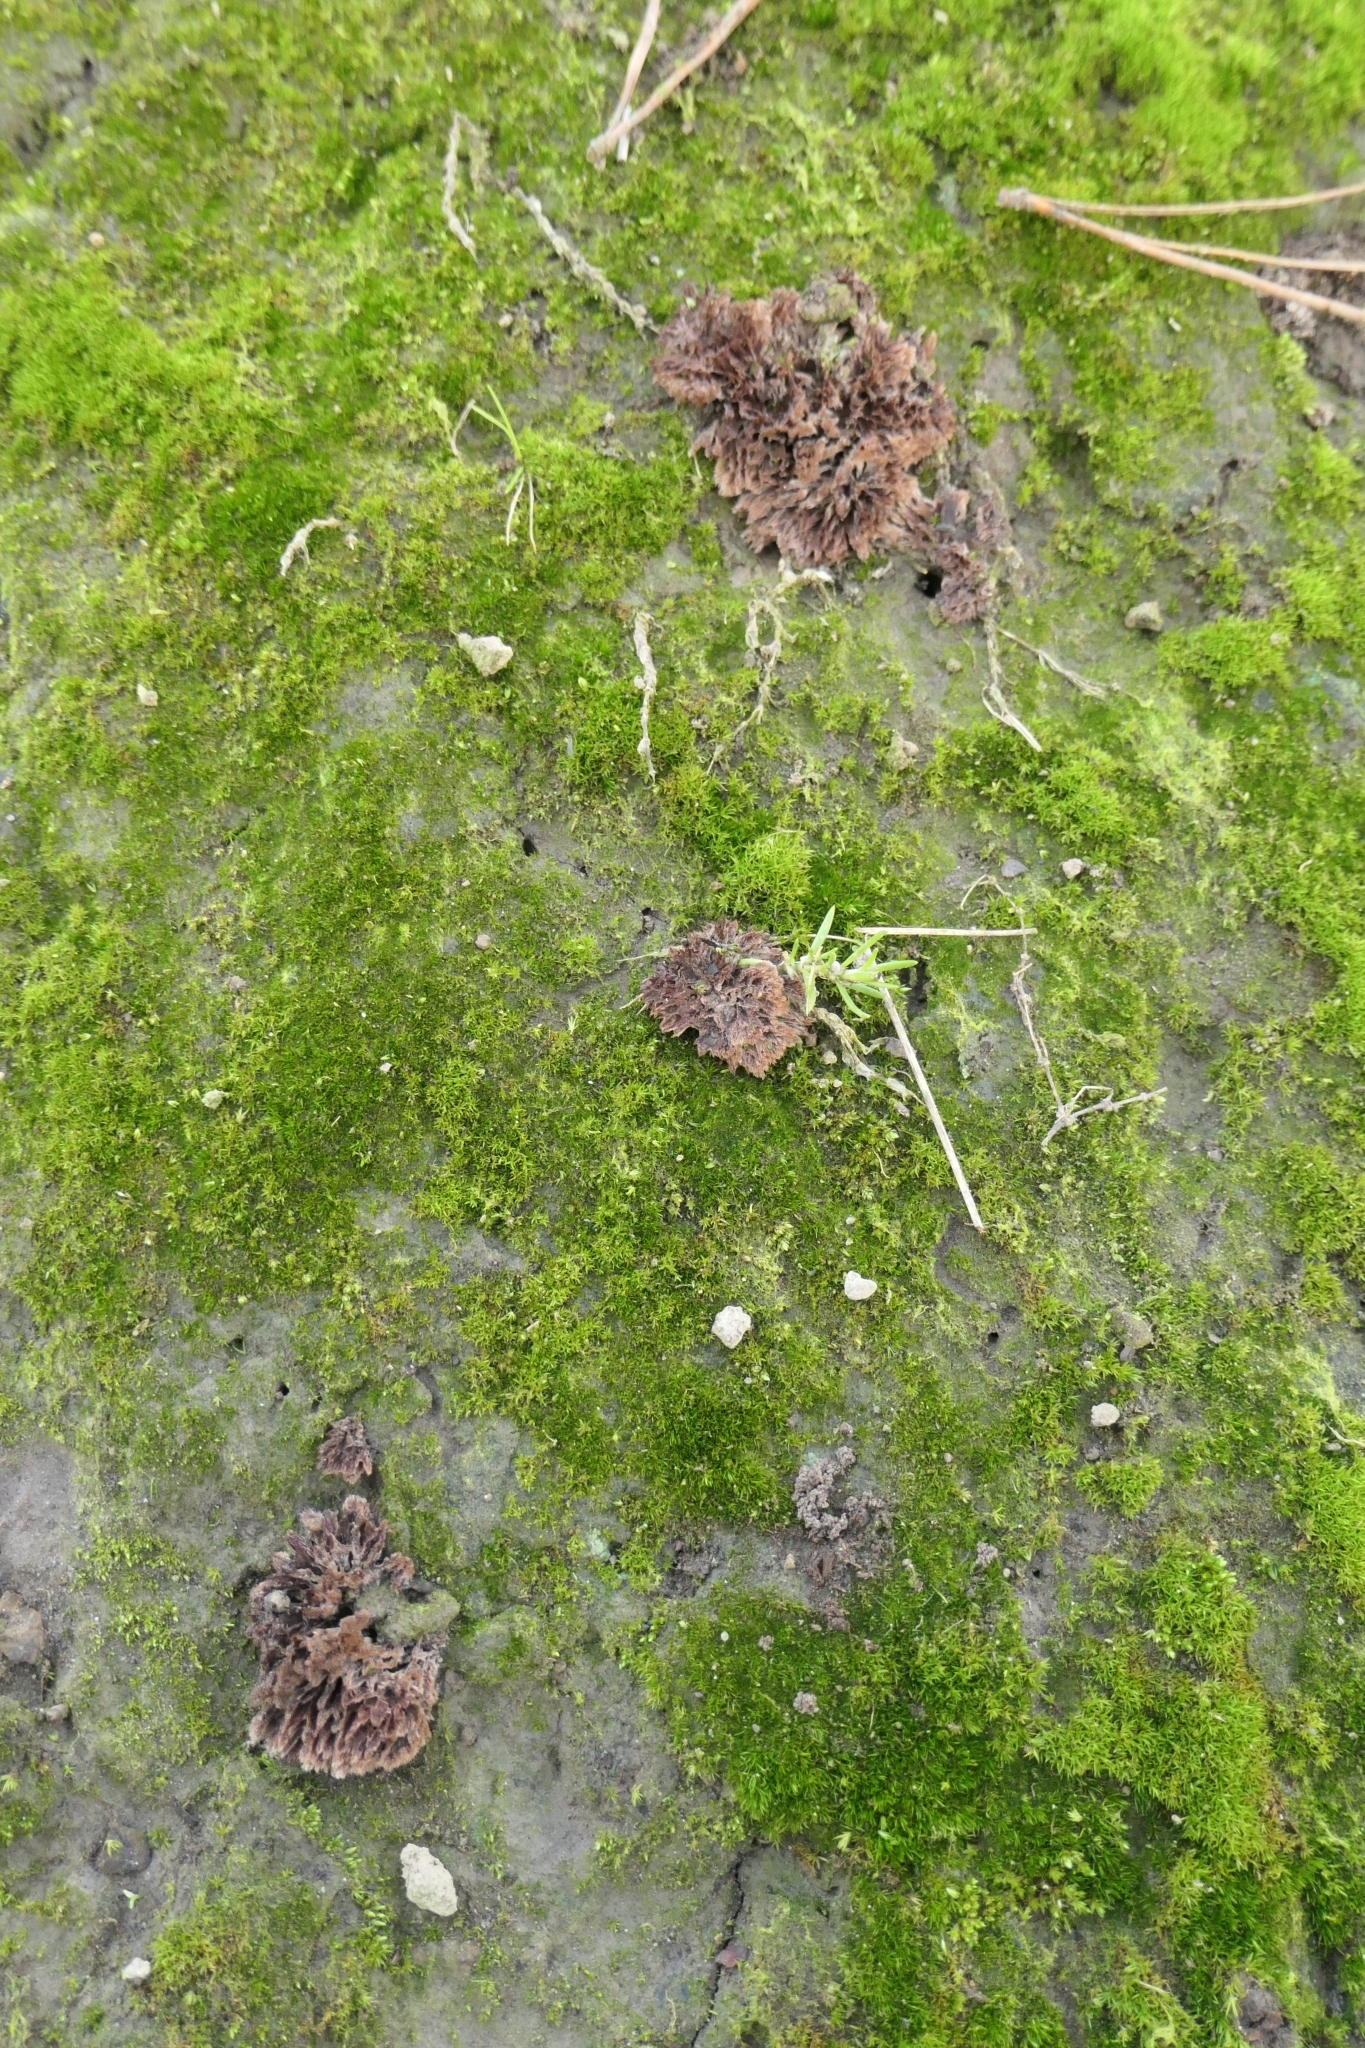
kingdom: Fungi
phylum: Basidiomycota
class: Agaricomycetes
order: Thelephorales
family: Thelephoraceae
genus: Thelephora
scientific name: Thelephora terrestris
